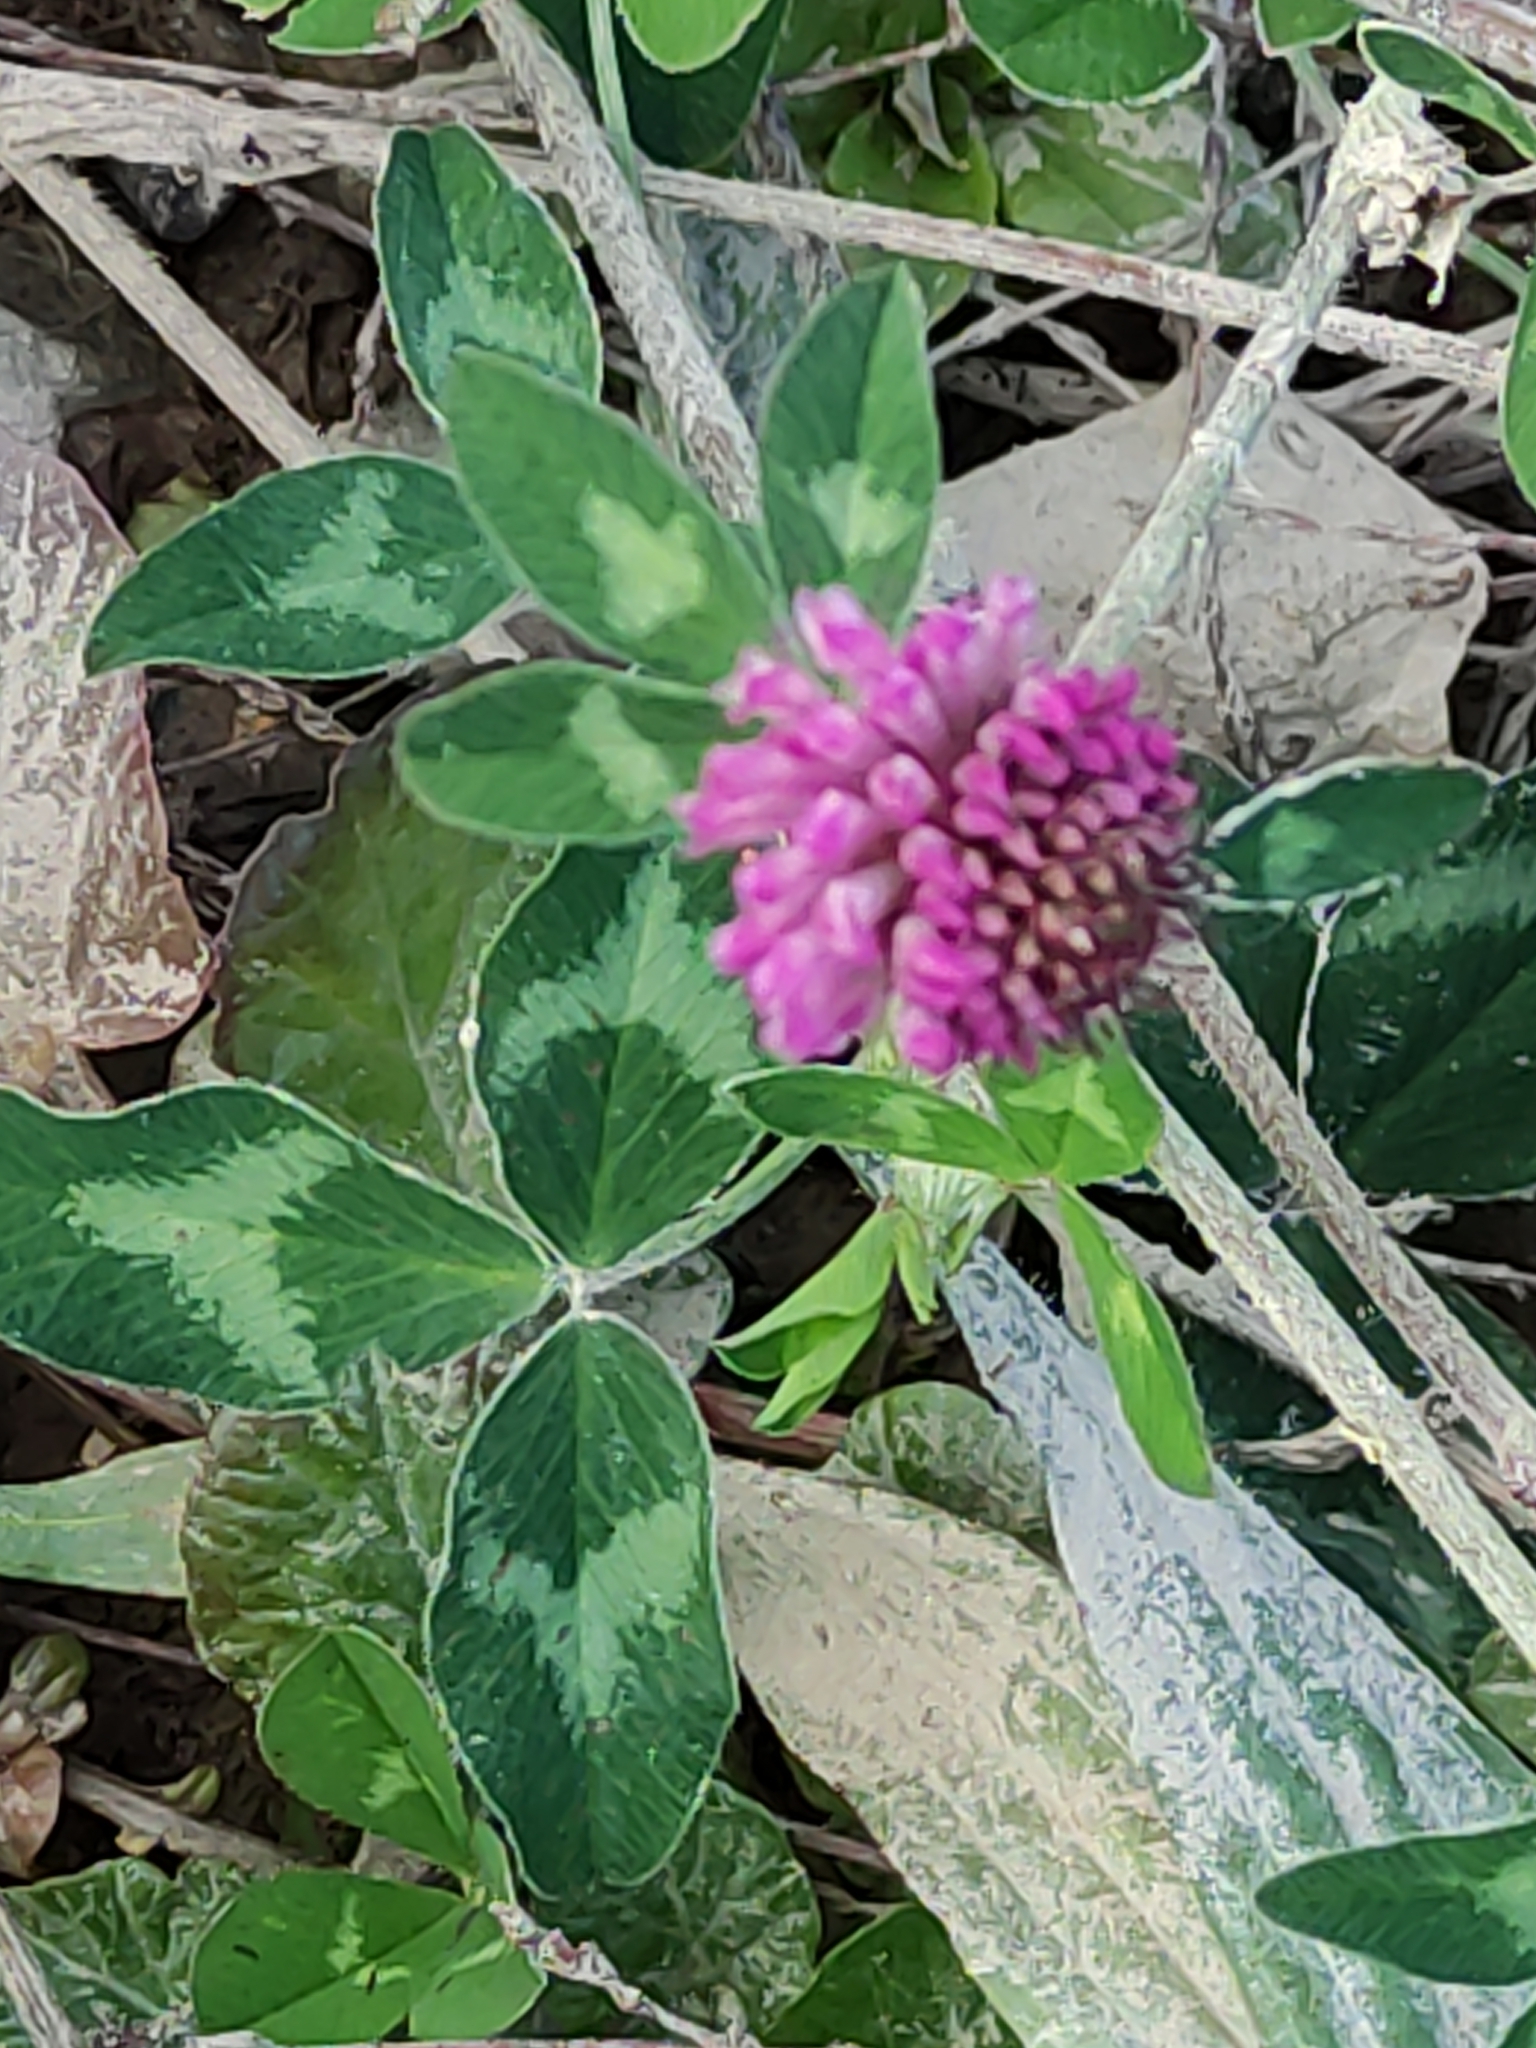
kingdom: Plantae
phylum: Tracheophyta
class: Magnoliopsida
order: Fabales
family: Fabaceae
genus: Trifolium
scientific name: Trifolium pratense
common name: Red clover
